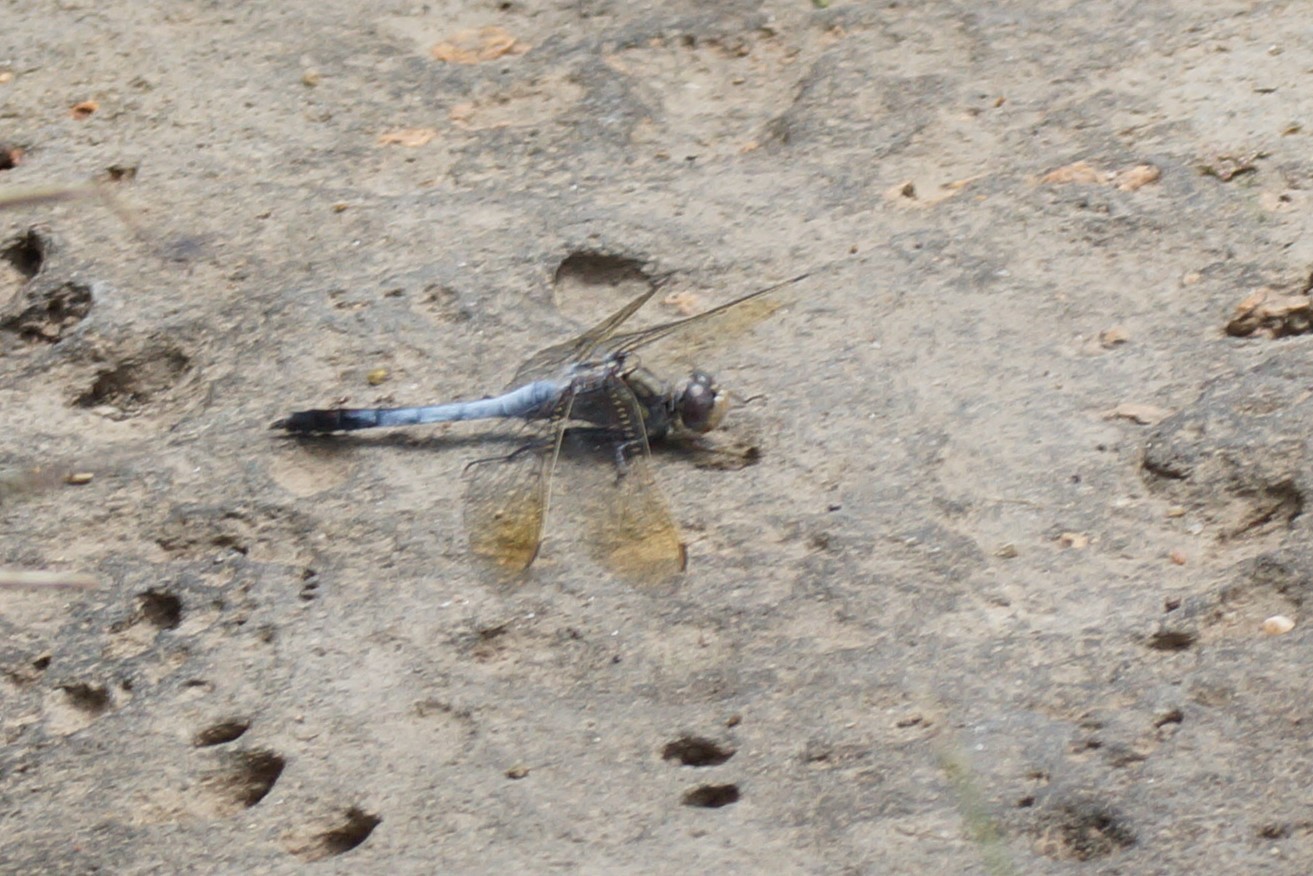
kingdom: Animalia
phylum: Arthropoda
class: Insecta
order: Odonata
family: Libellulidae
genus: Orthetrum
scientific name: Orthetrum caledonicum
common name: Blue skimmer
